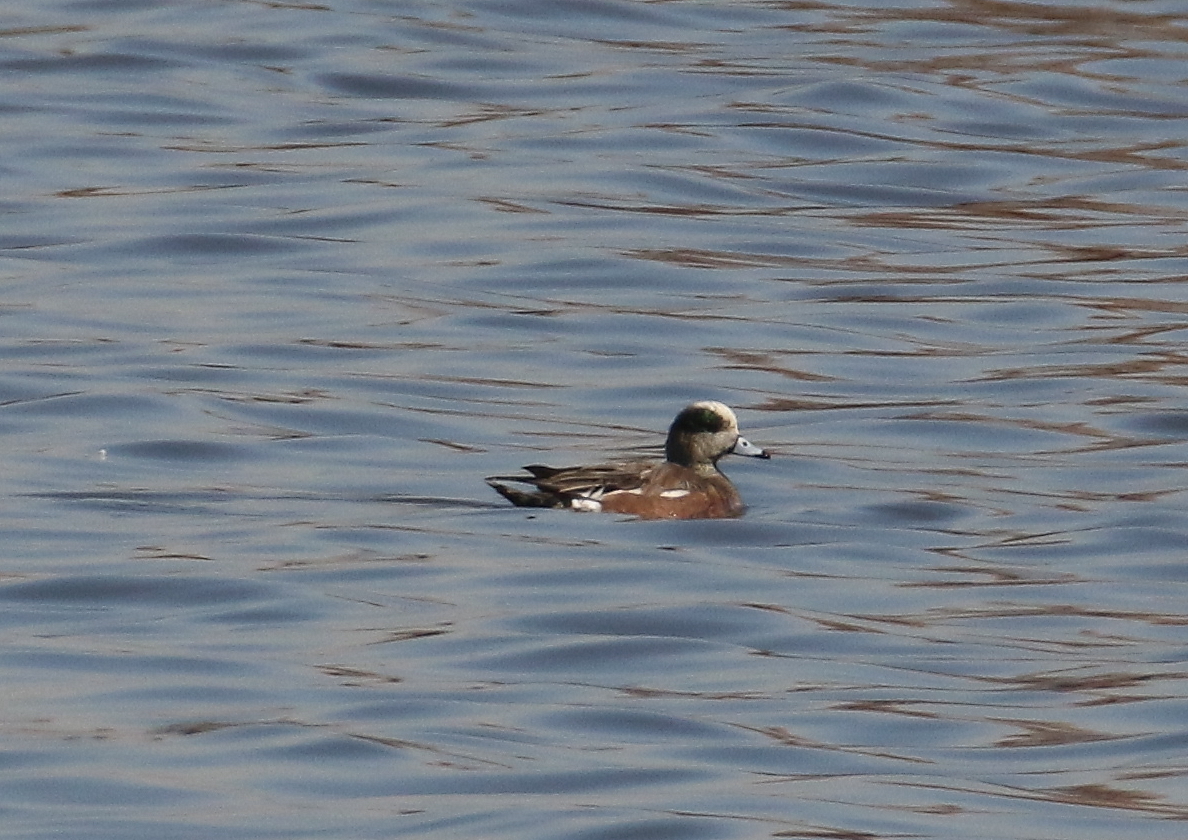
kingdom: Animalia
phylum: Chordata
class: Aves
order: Anseriformes
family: Anatidae
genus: Mareca
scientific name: Mareca americana
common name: American wigeon
